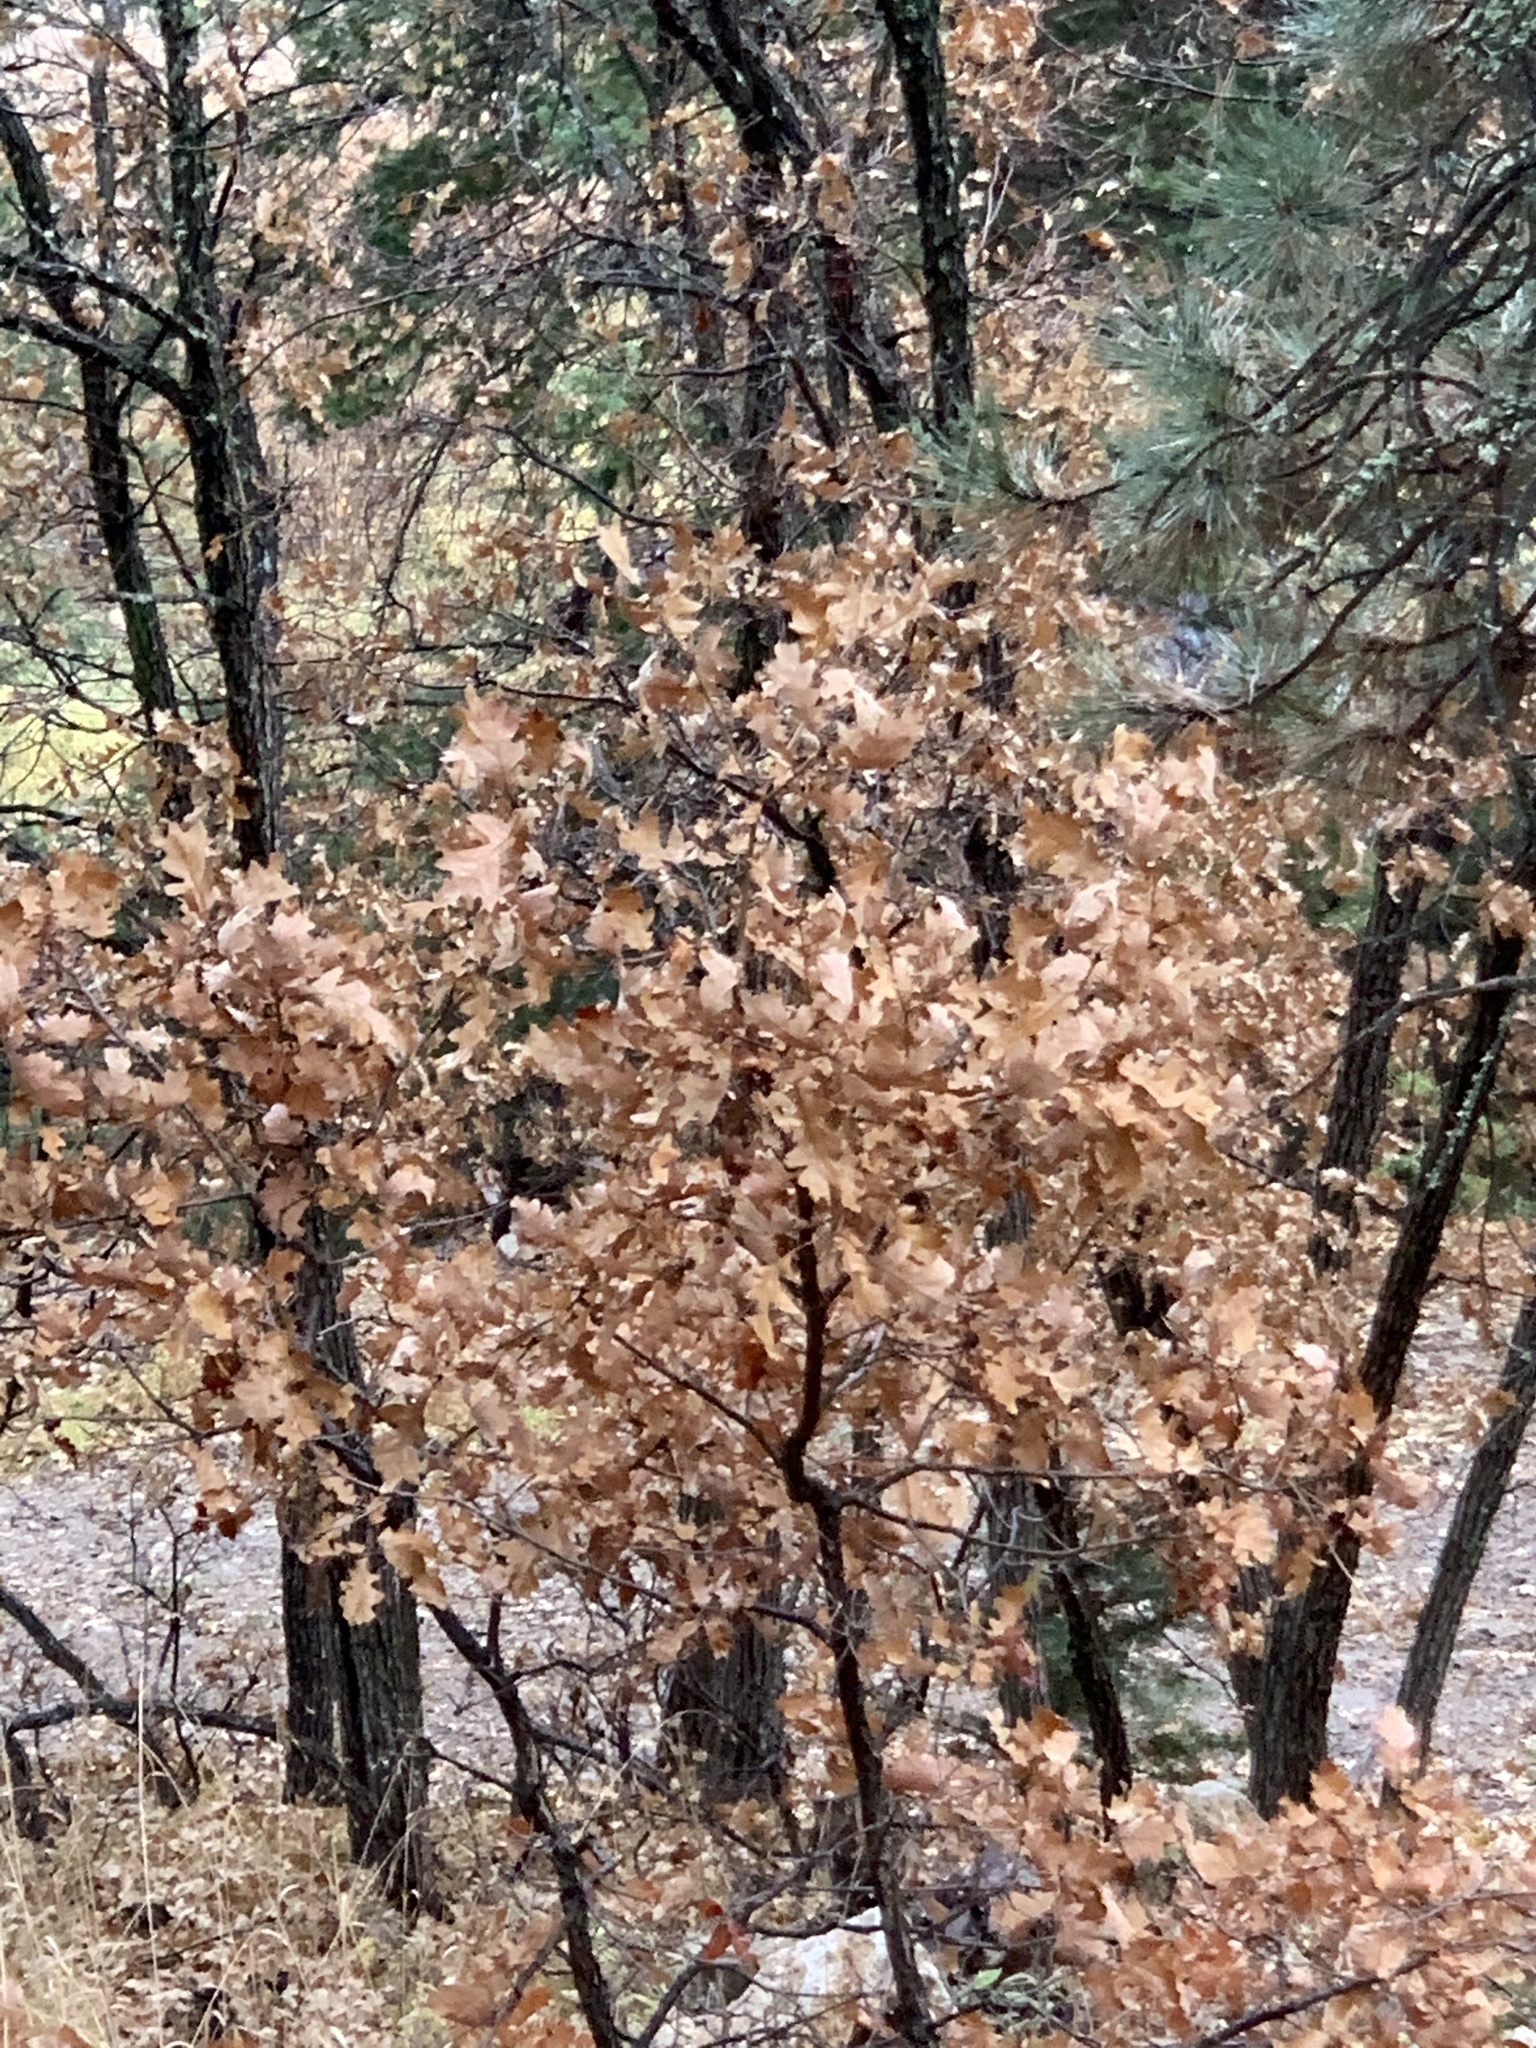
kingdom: Plantae
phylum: Tracheophyta
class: Magnoliopsida
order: Fagales
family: Fagaceae
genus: Quercus
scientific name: Quercus gambelii
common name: Gambel oak
